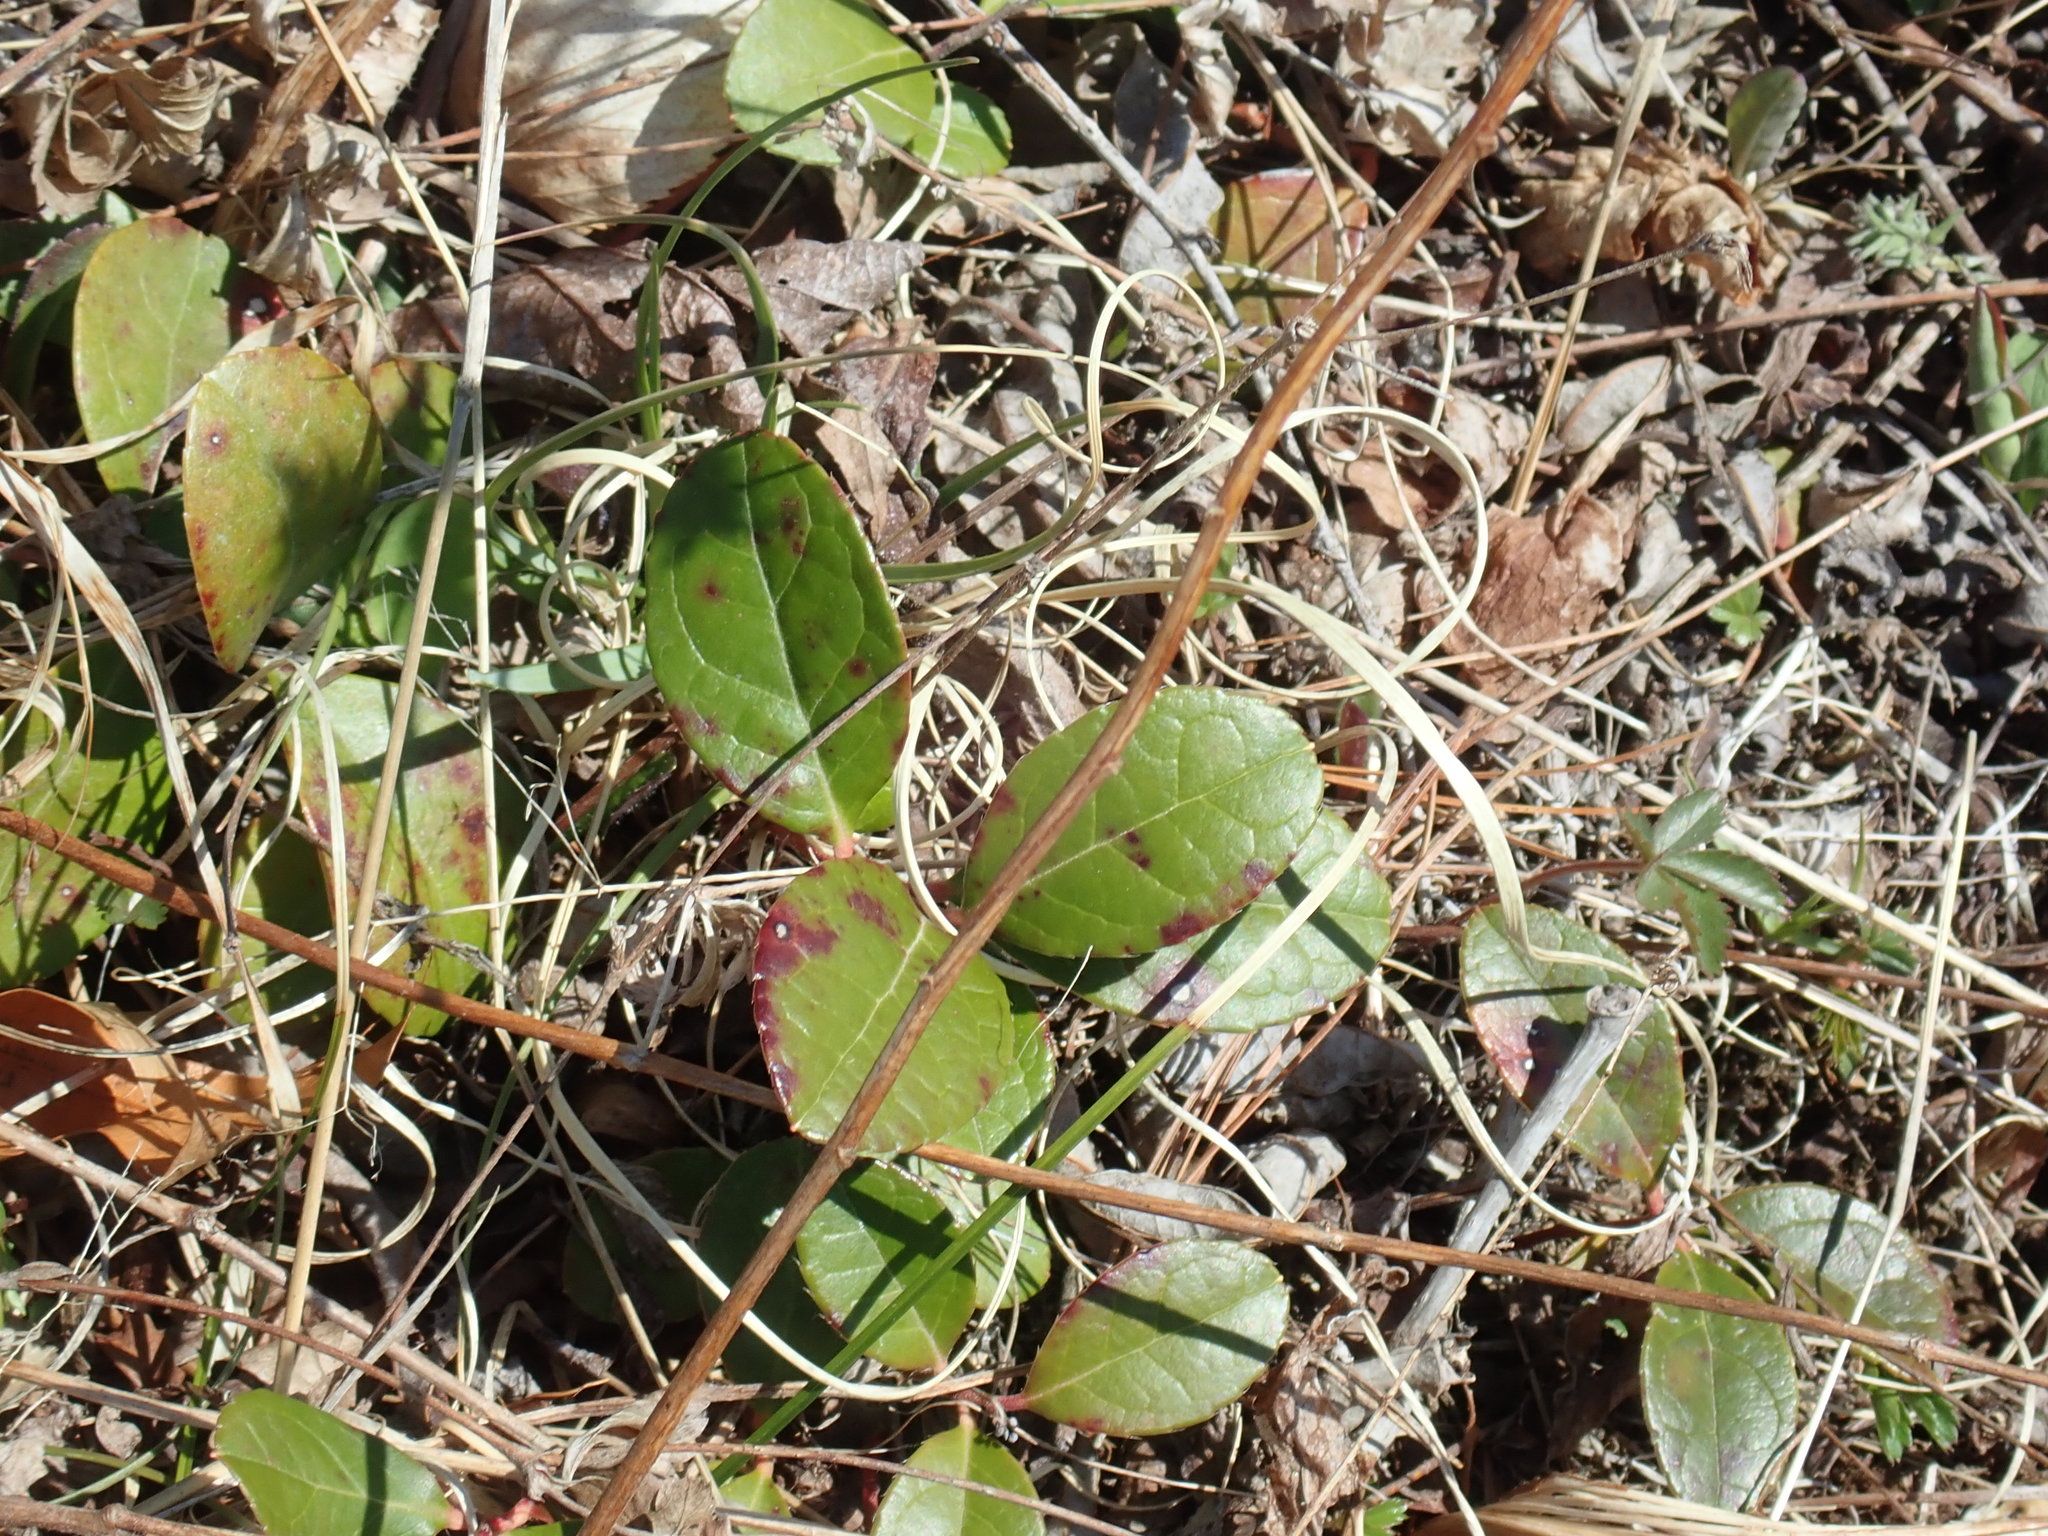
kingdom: Plantae
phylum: Tracheophyta
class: Magnoliopsida
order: Ericales
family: Ericaceae
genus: Gaultheria
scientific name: Gaultheria procumbens
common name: Checkerberry
